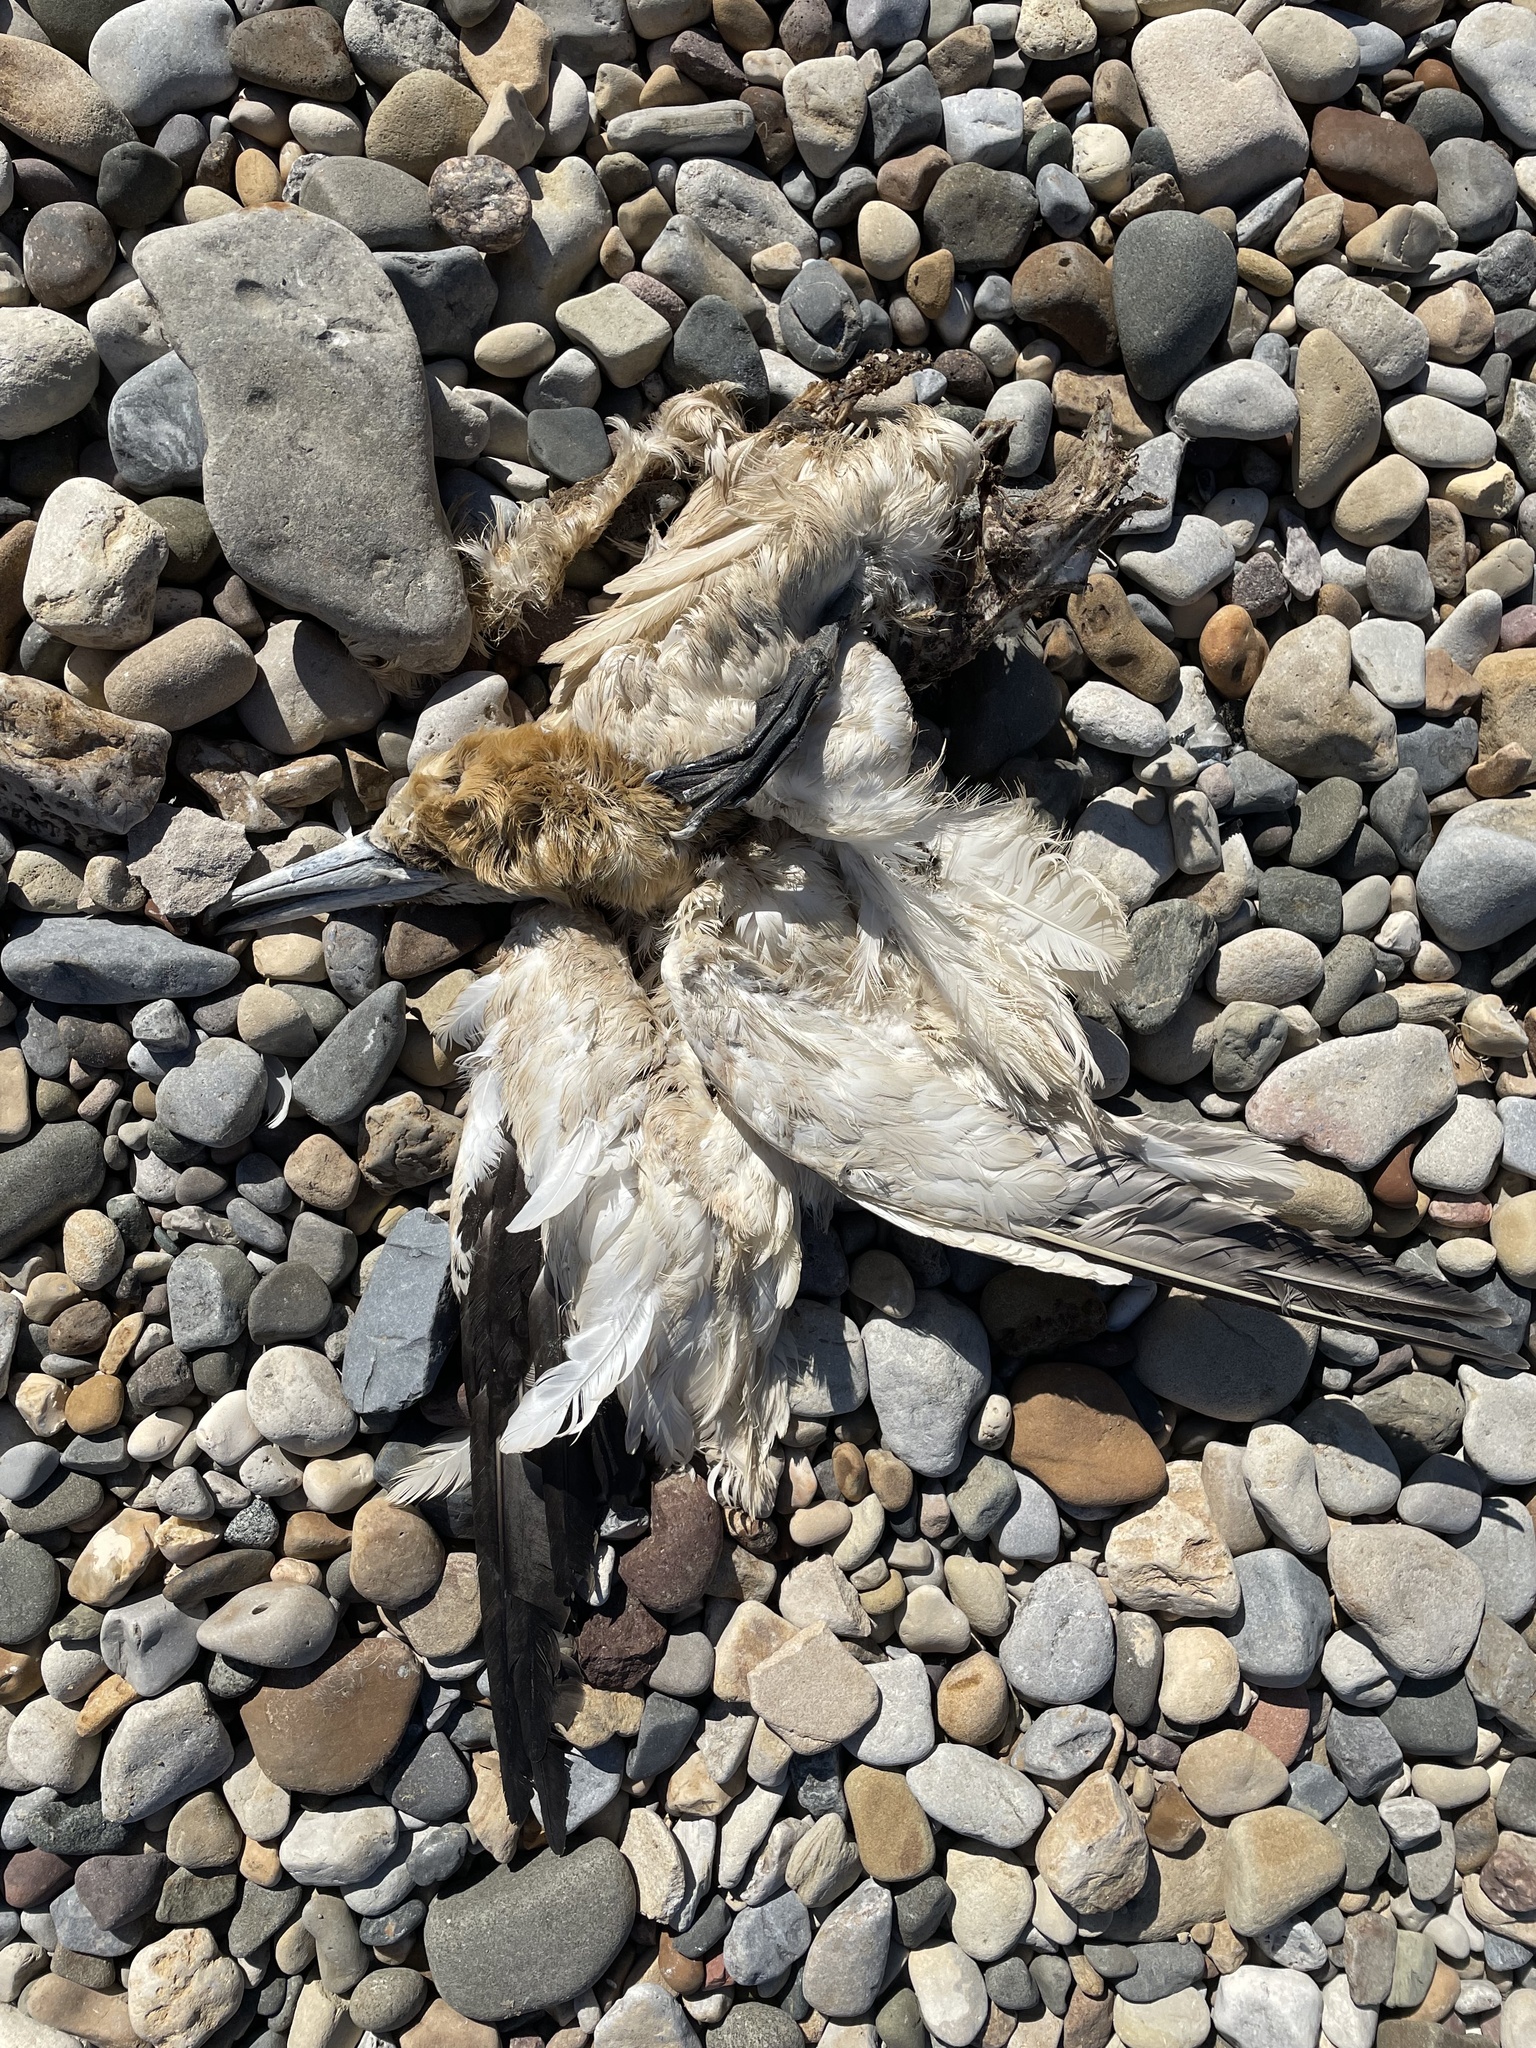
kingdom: Animalia
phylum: Chordata
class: Aves
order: Suliformes
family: Sulidae
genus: Morus
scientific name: Morus bassanus
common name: Northern gannet
